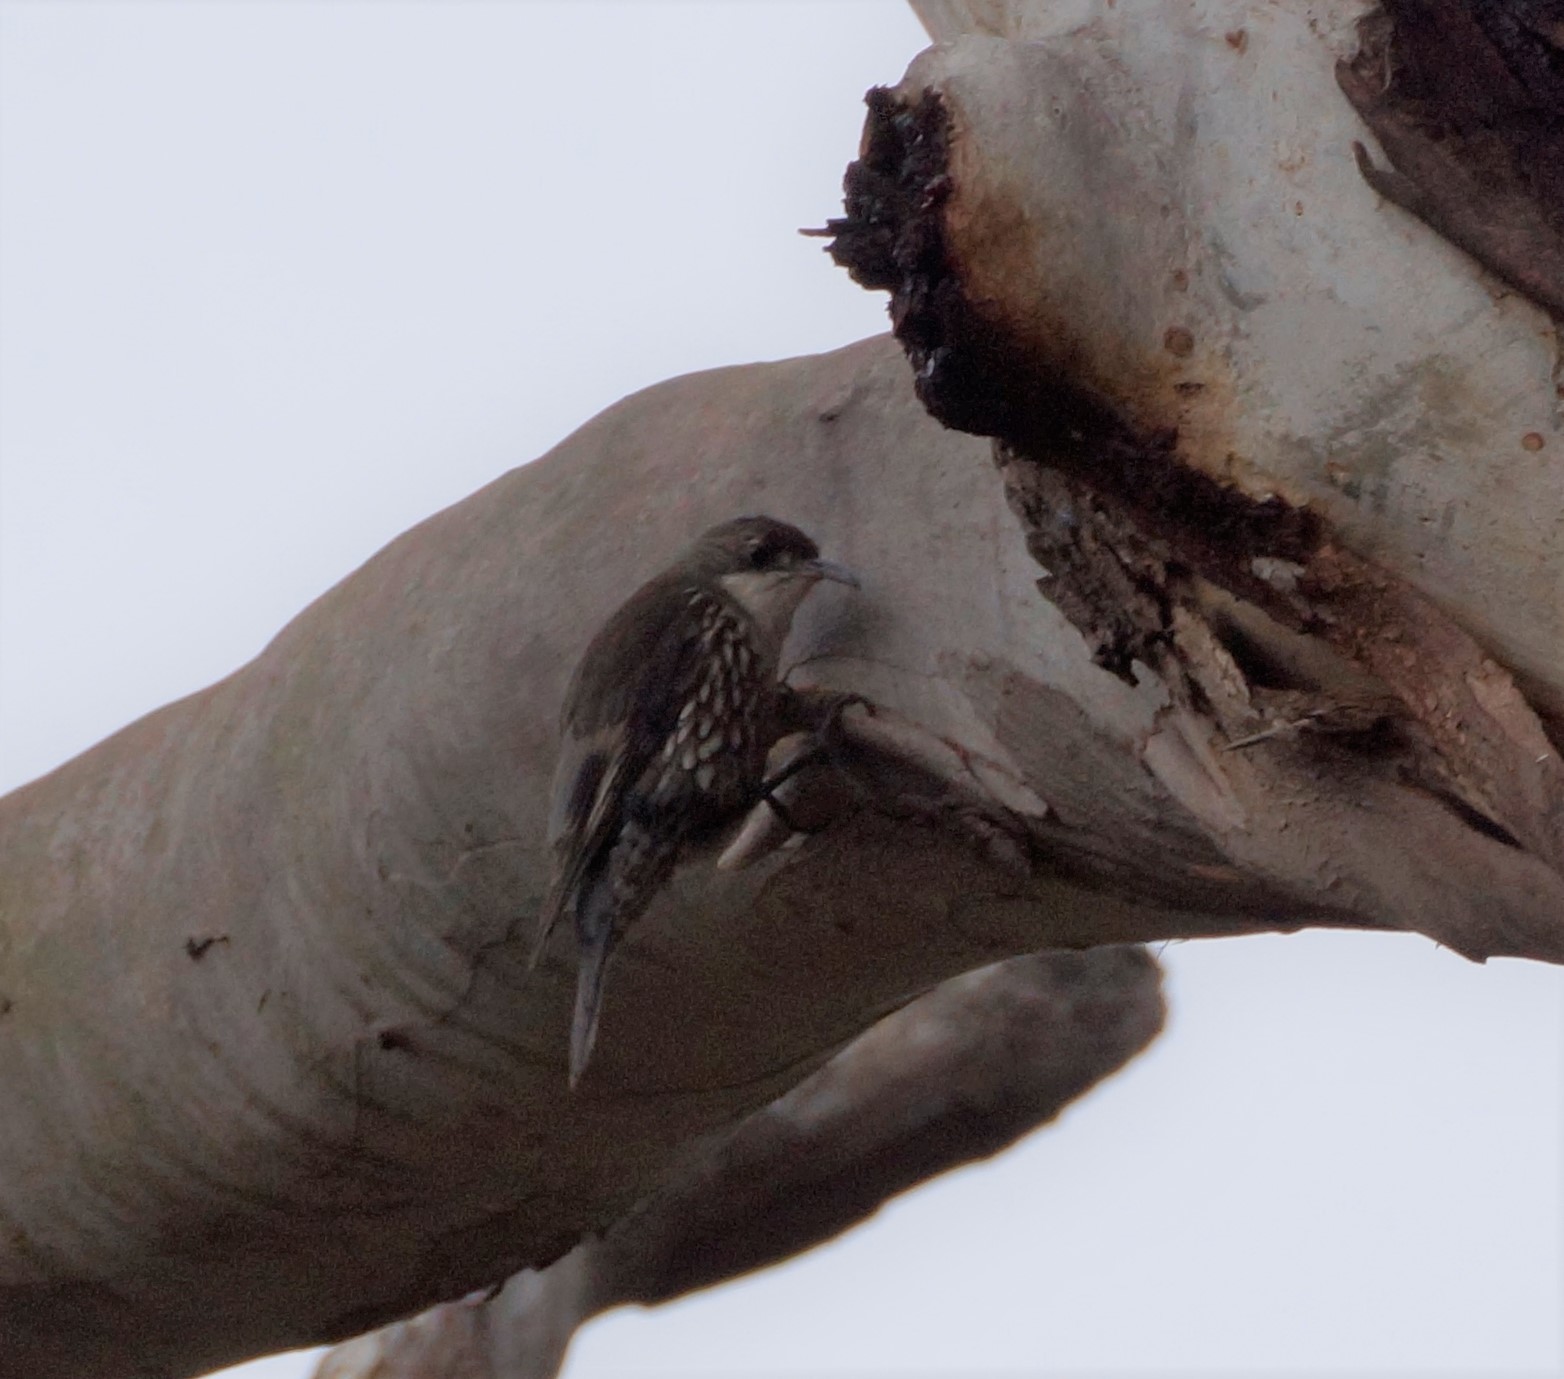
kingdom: Animalia
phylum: Chordata
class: Aves
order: Passeriformes
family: Climacteridae
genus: Cormobates
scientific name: Cormobates leucophaea
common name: White-throated treecreeper
